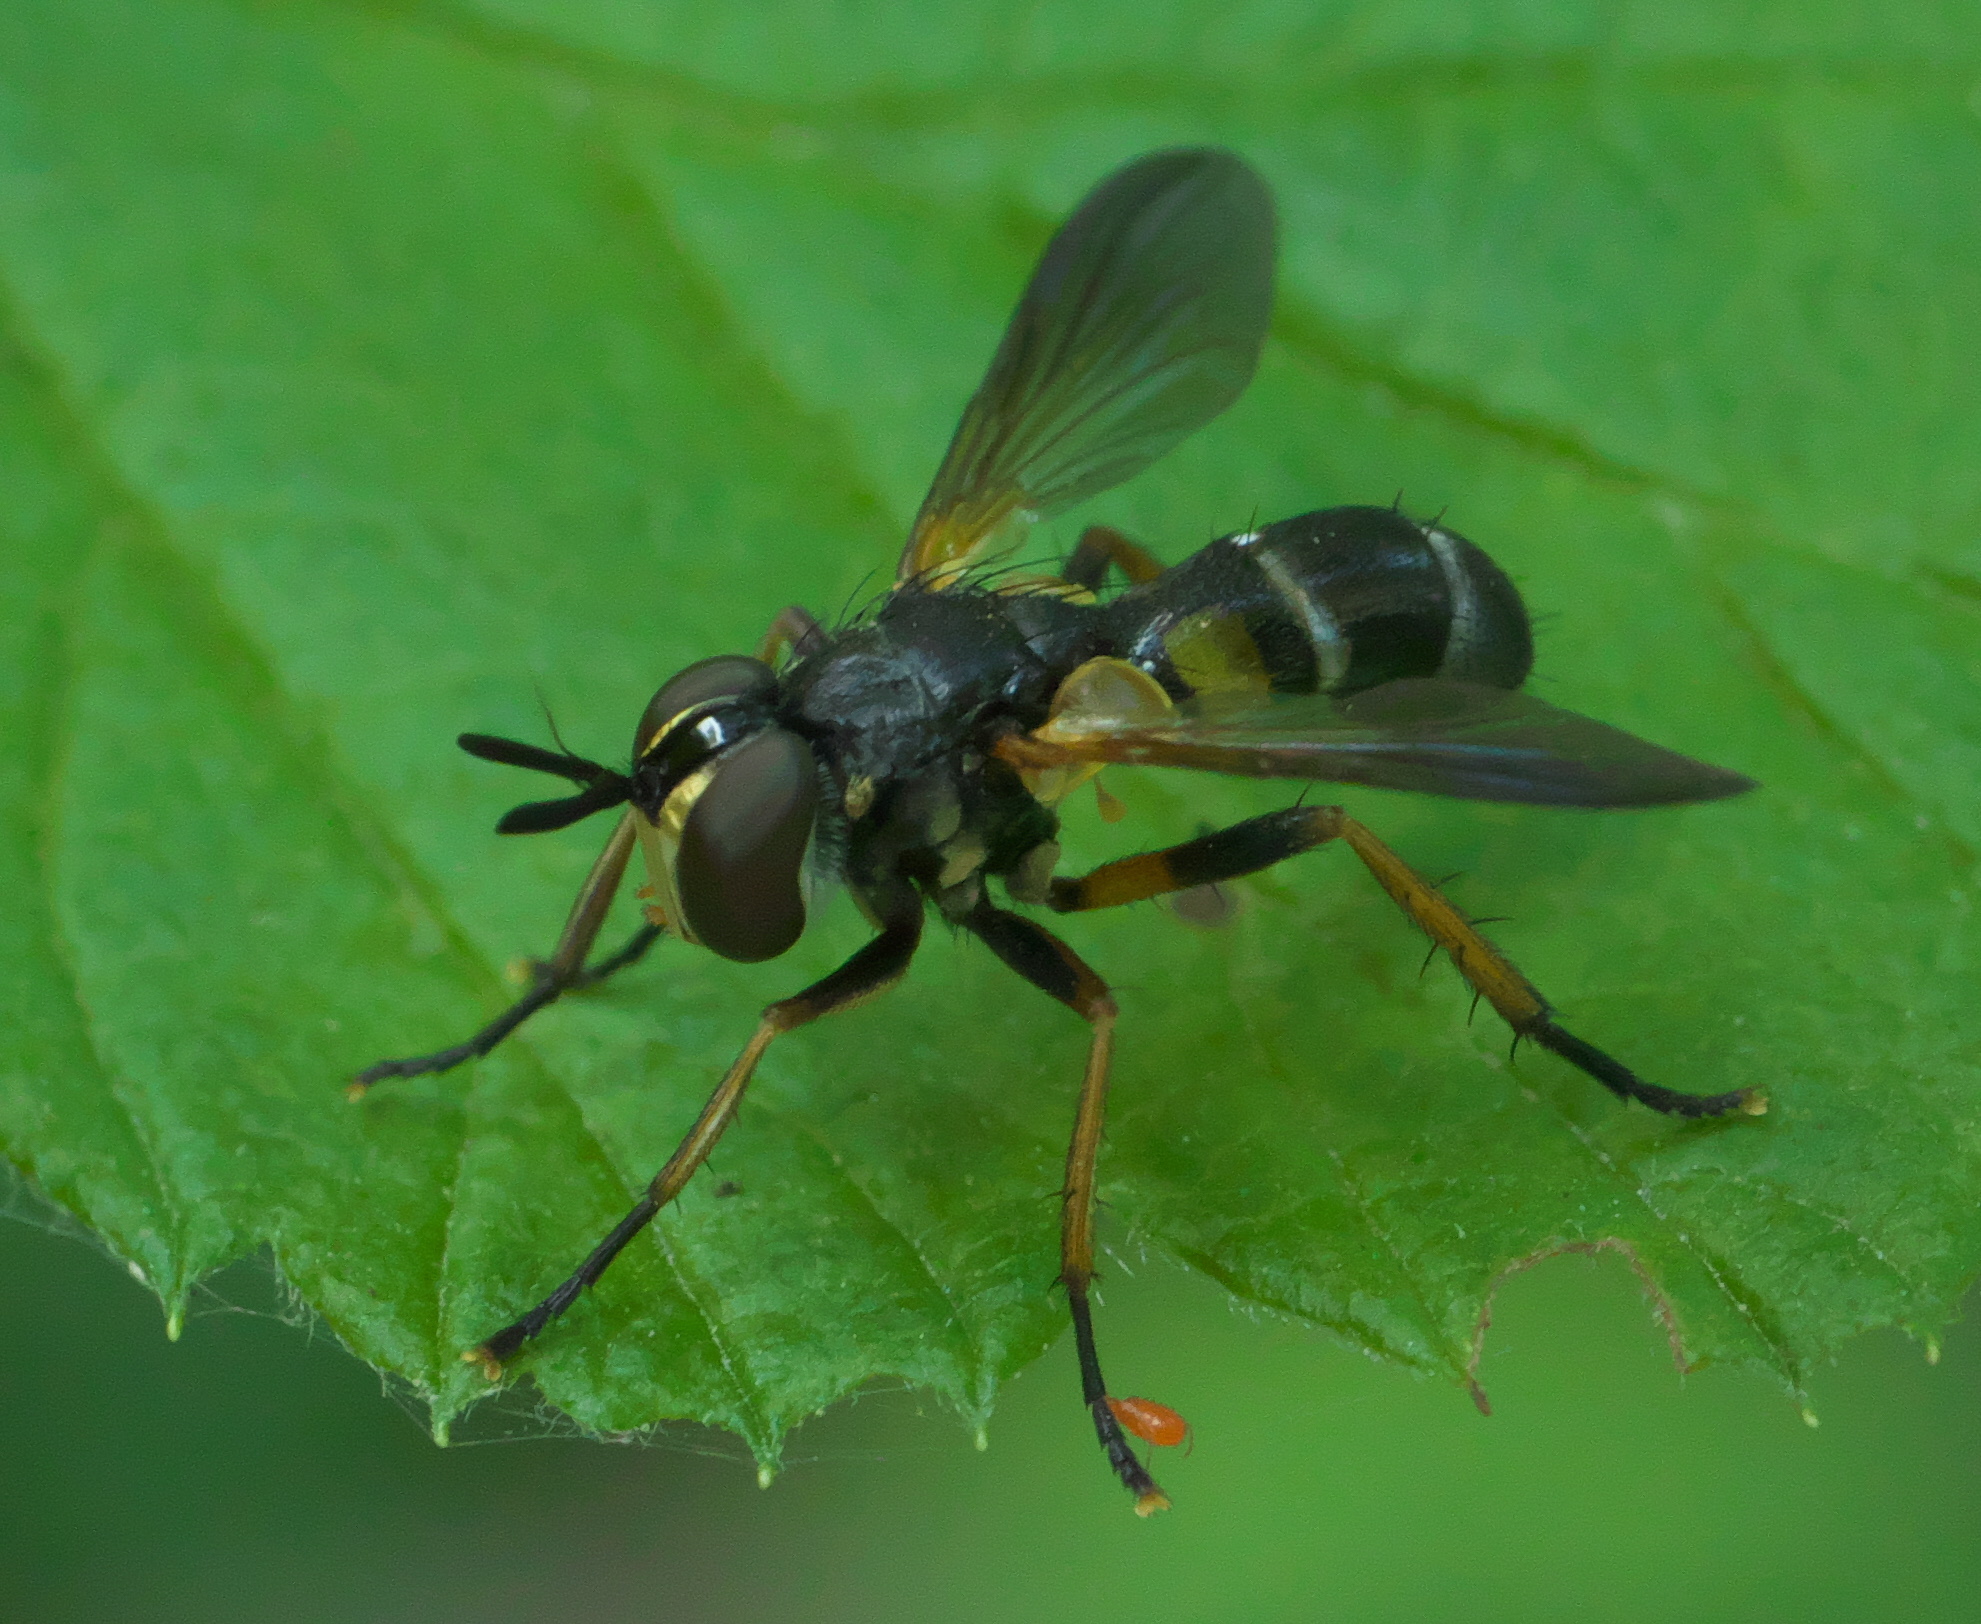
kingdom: Animalia
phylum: Arthropoda
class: Insecta
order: Diptera
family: Tachinidae
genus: Hemyda
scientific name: Hemyda aurata
